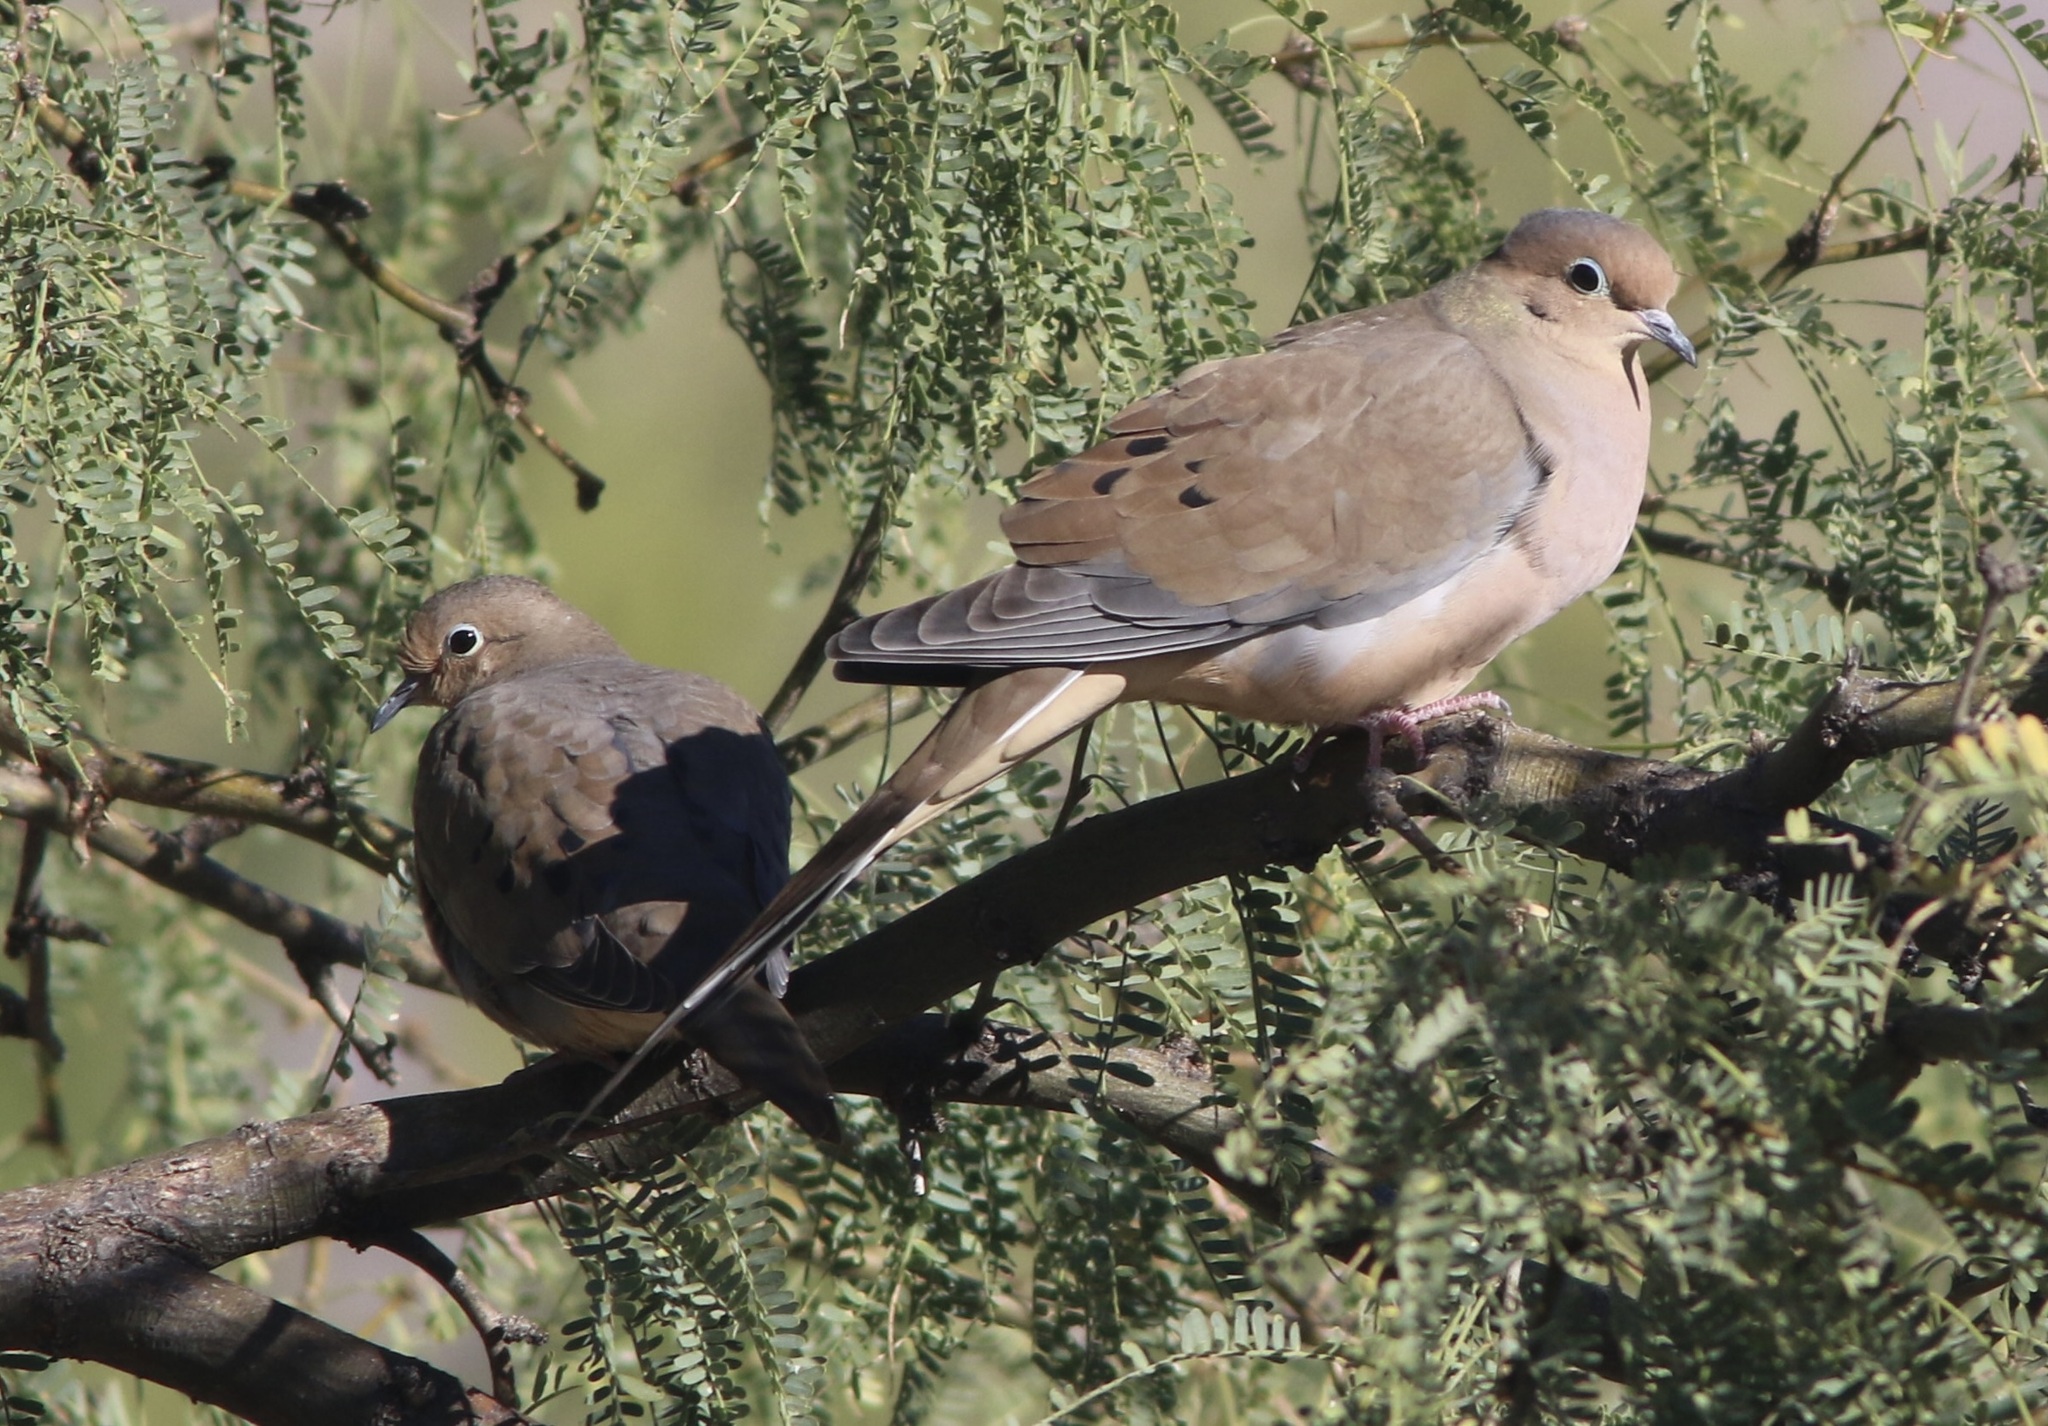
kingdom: Animalia
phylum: Chordata
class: Aves
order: Columbiformes
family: Columbidae
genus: Zenaida
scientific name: Zenaida macroura
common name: Mourning dove
